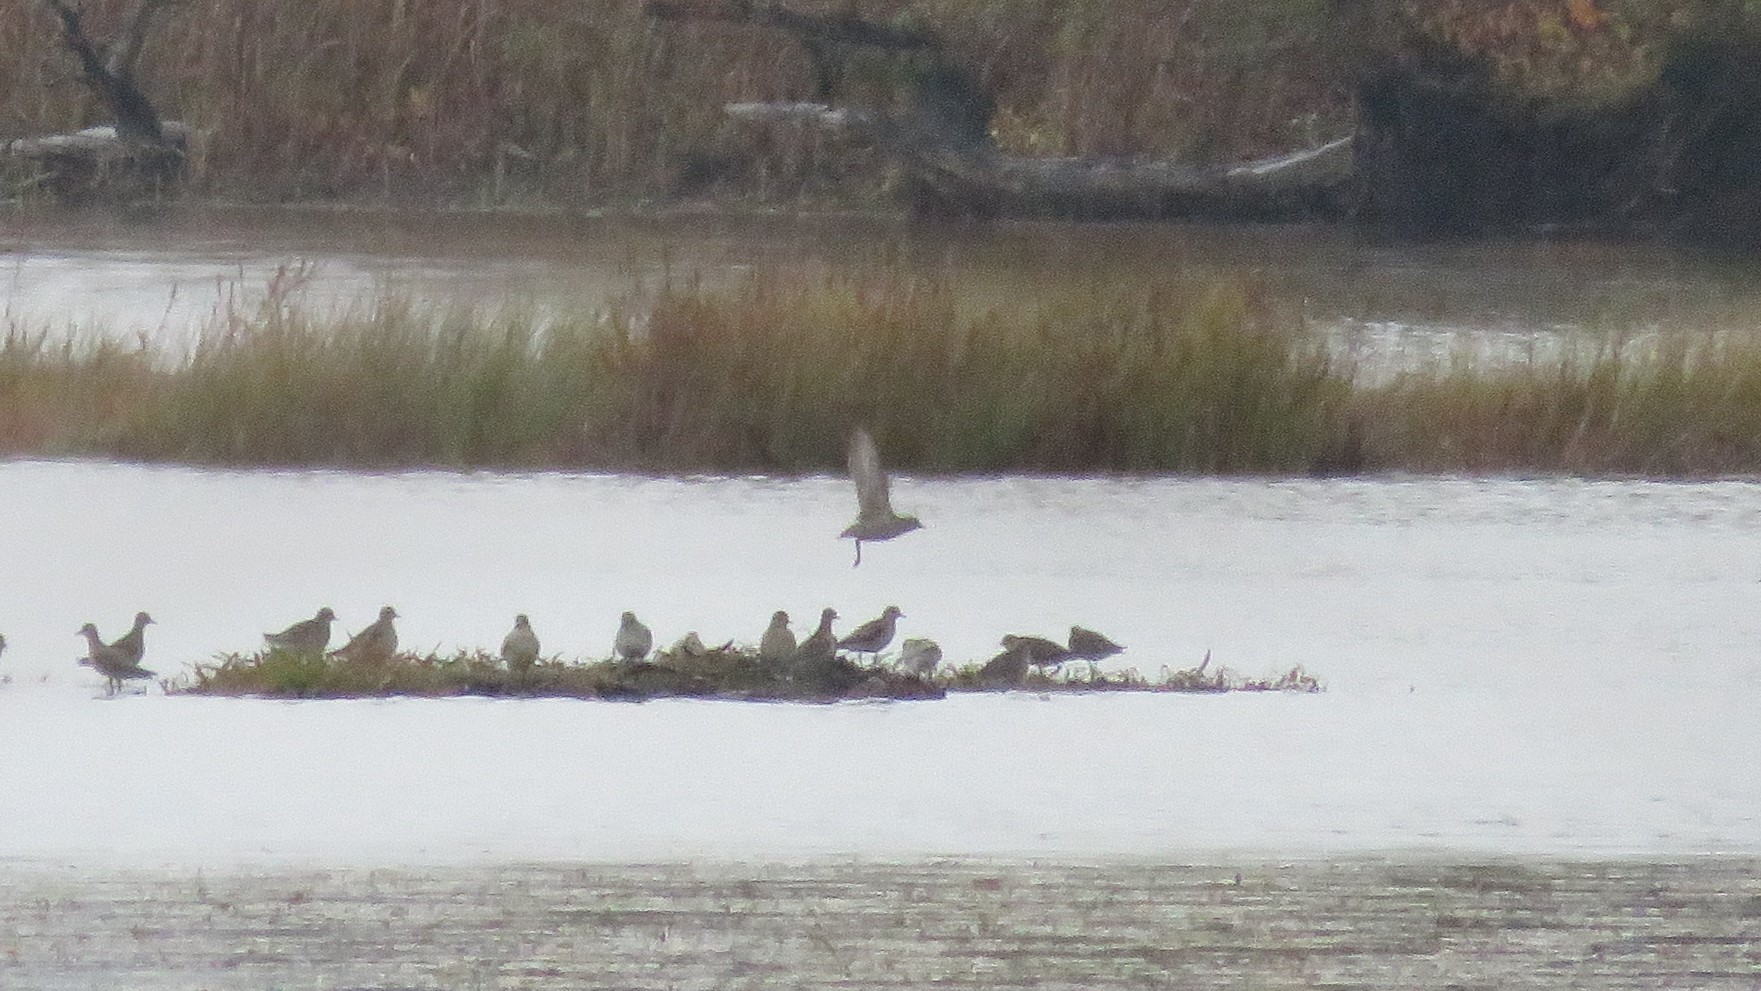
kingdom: Animalia
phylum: Chordata
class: Aves
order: Charadriiformes
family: Charadriidae
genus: Pluvialis
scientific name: Pluvialis dominica
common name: American golden plover
